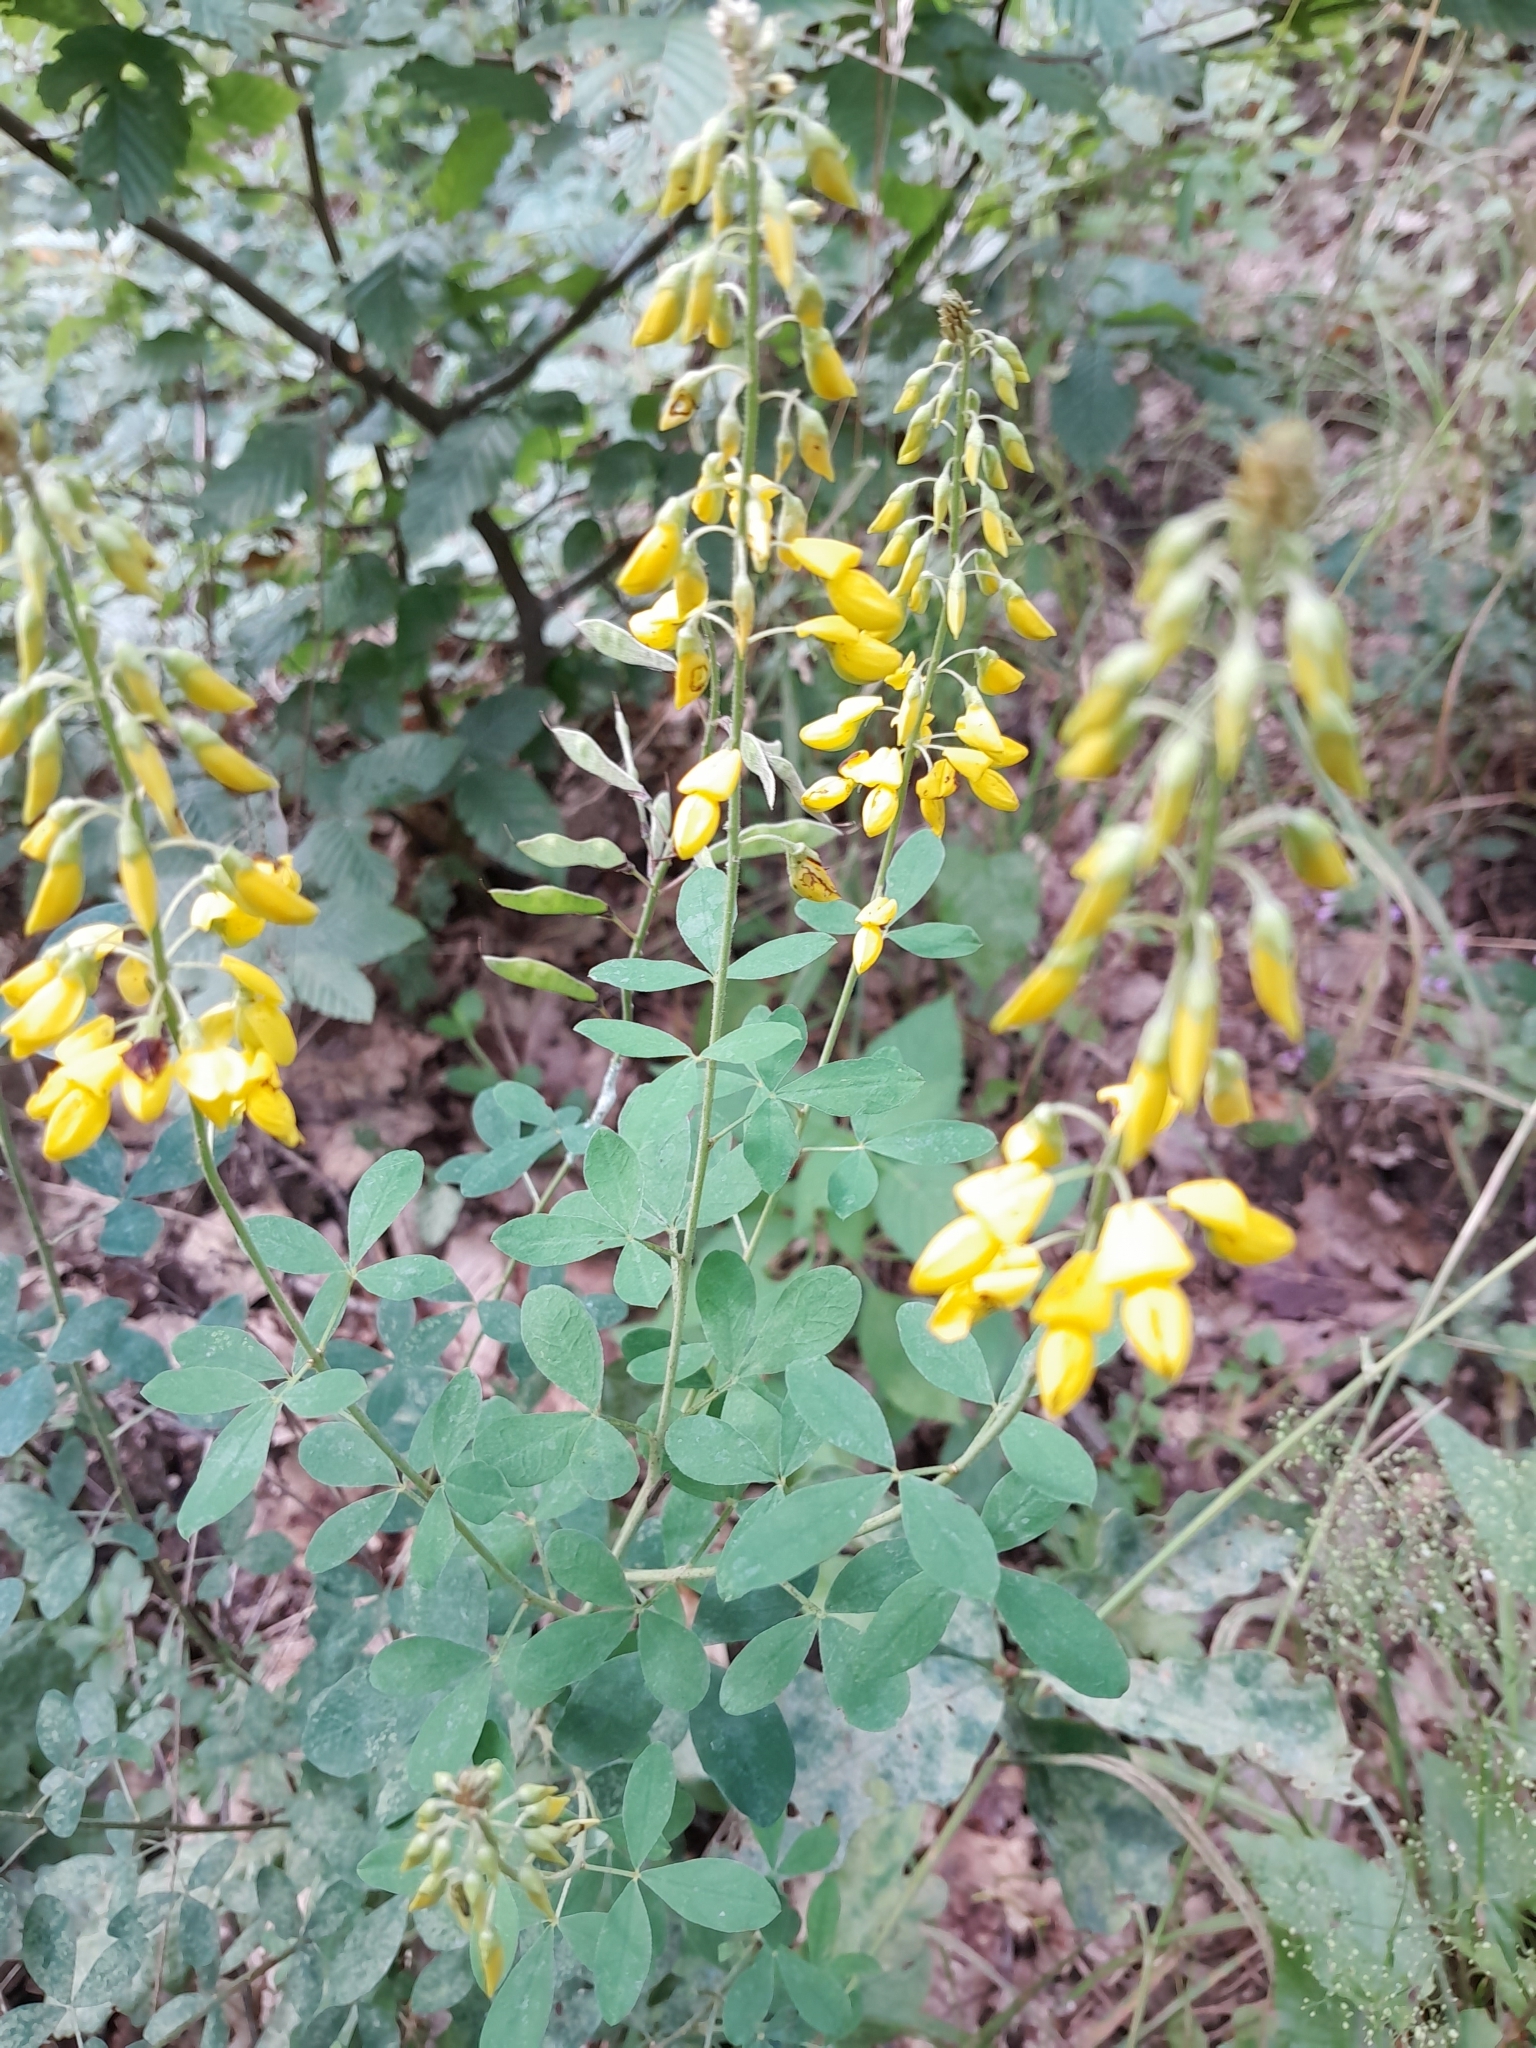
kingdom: Plantae
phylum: Tracheophyta
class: Magnoliopsida
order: Fabales
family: Fabaceae
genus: Cytisus
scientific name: Cytisus nigricans
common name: Black broom
